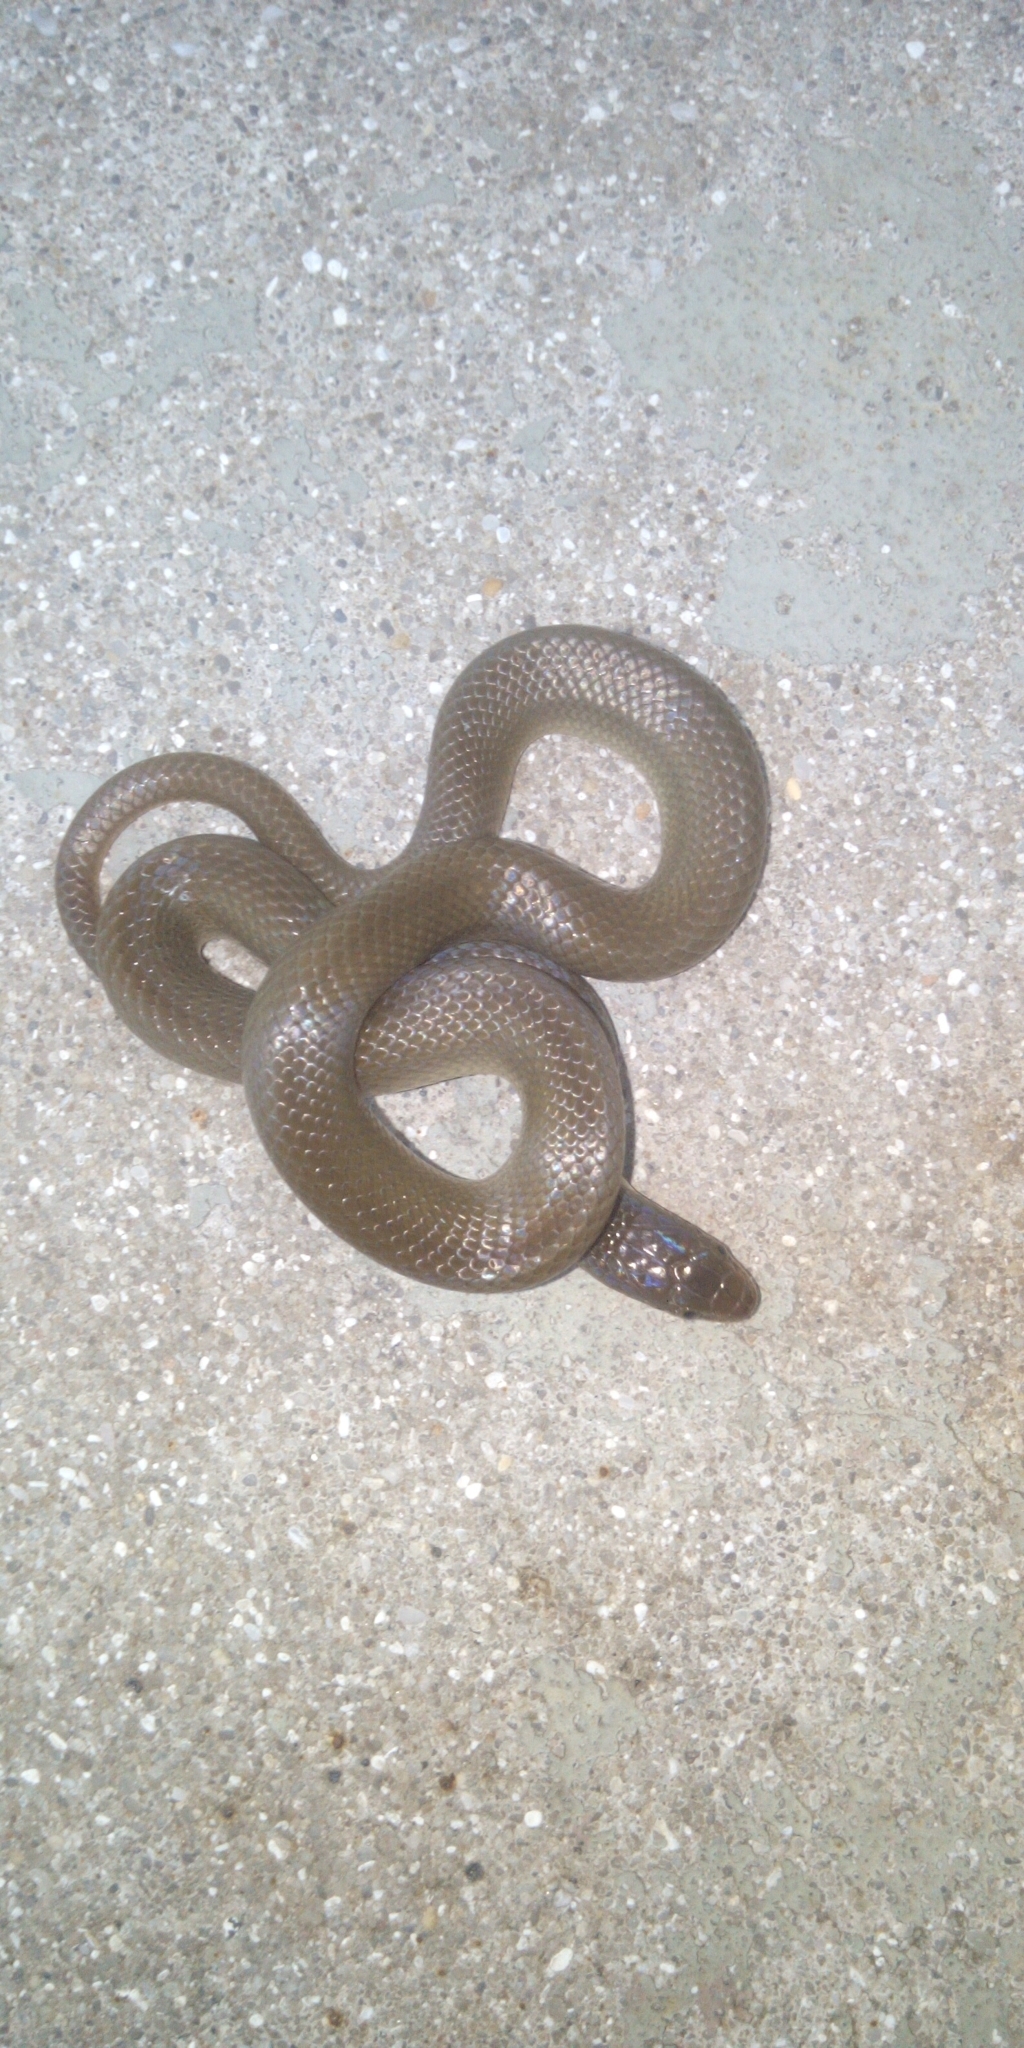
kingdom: Animalia
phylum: Chordata
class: Squamata
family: Lamprophiidae
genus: Lycodonomorphus
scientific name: Lycodonomorphus rufulus
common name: Brown water snake
